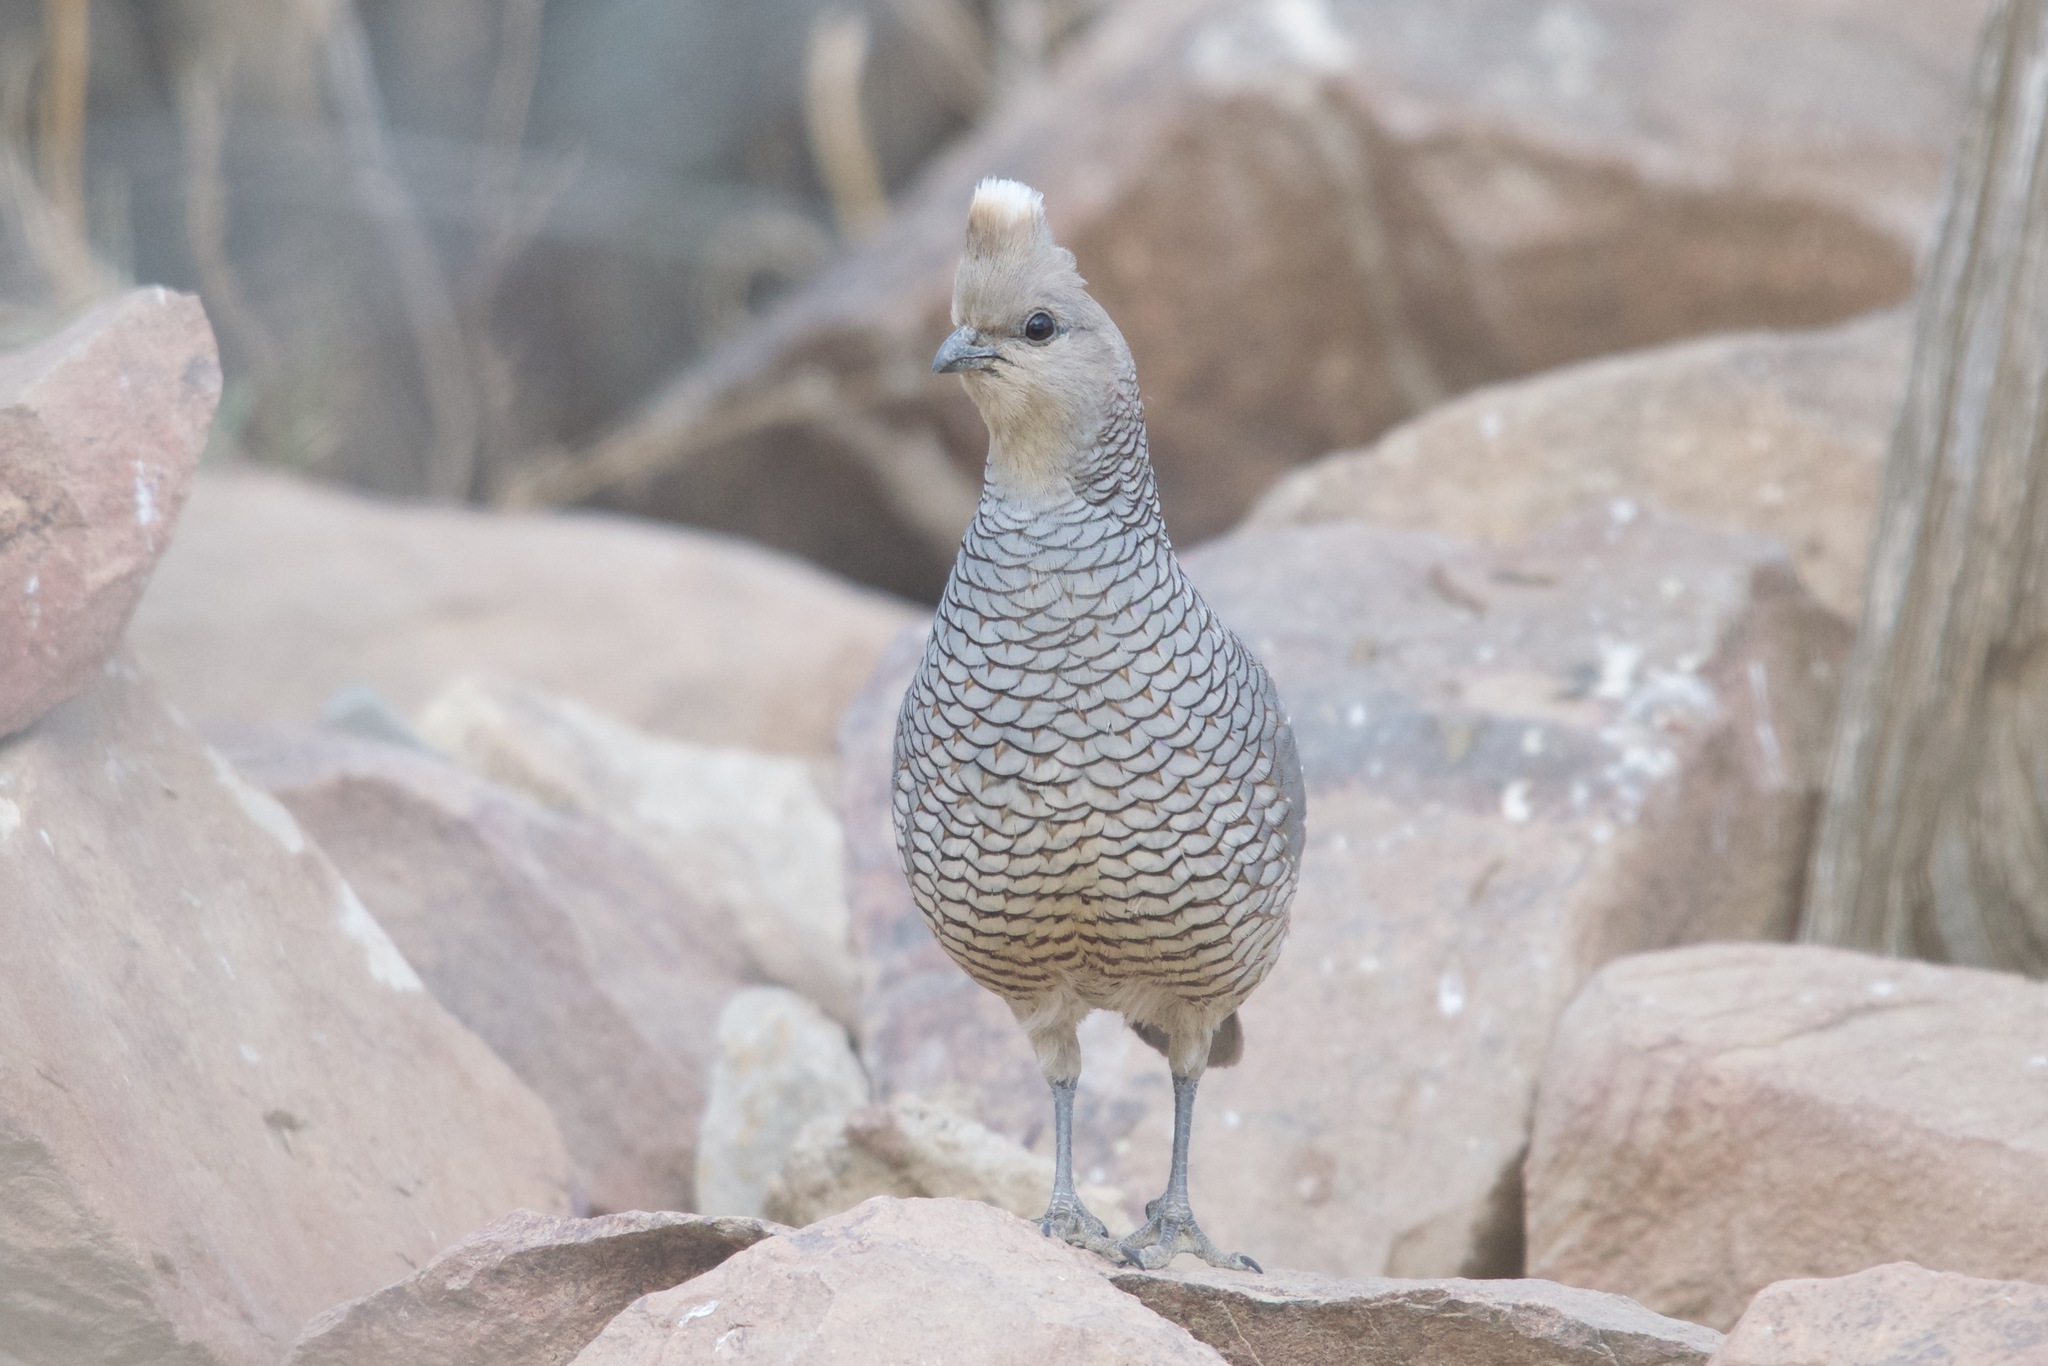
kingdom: Animalia
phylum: Chordata
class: Aves
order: Galliformes
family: Odontophoridae
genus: Callipepla
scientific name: Callipepla squamata
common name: Scaled quail
